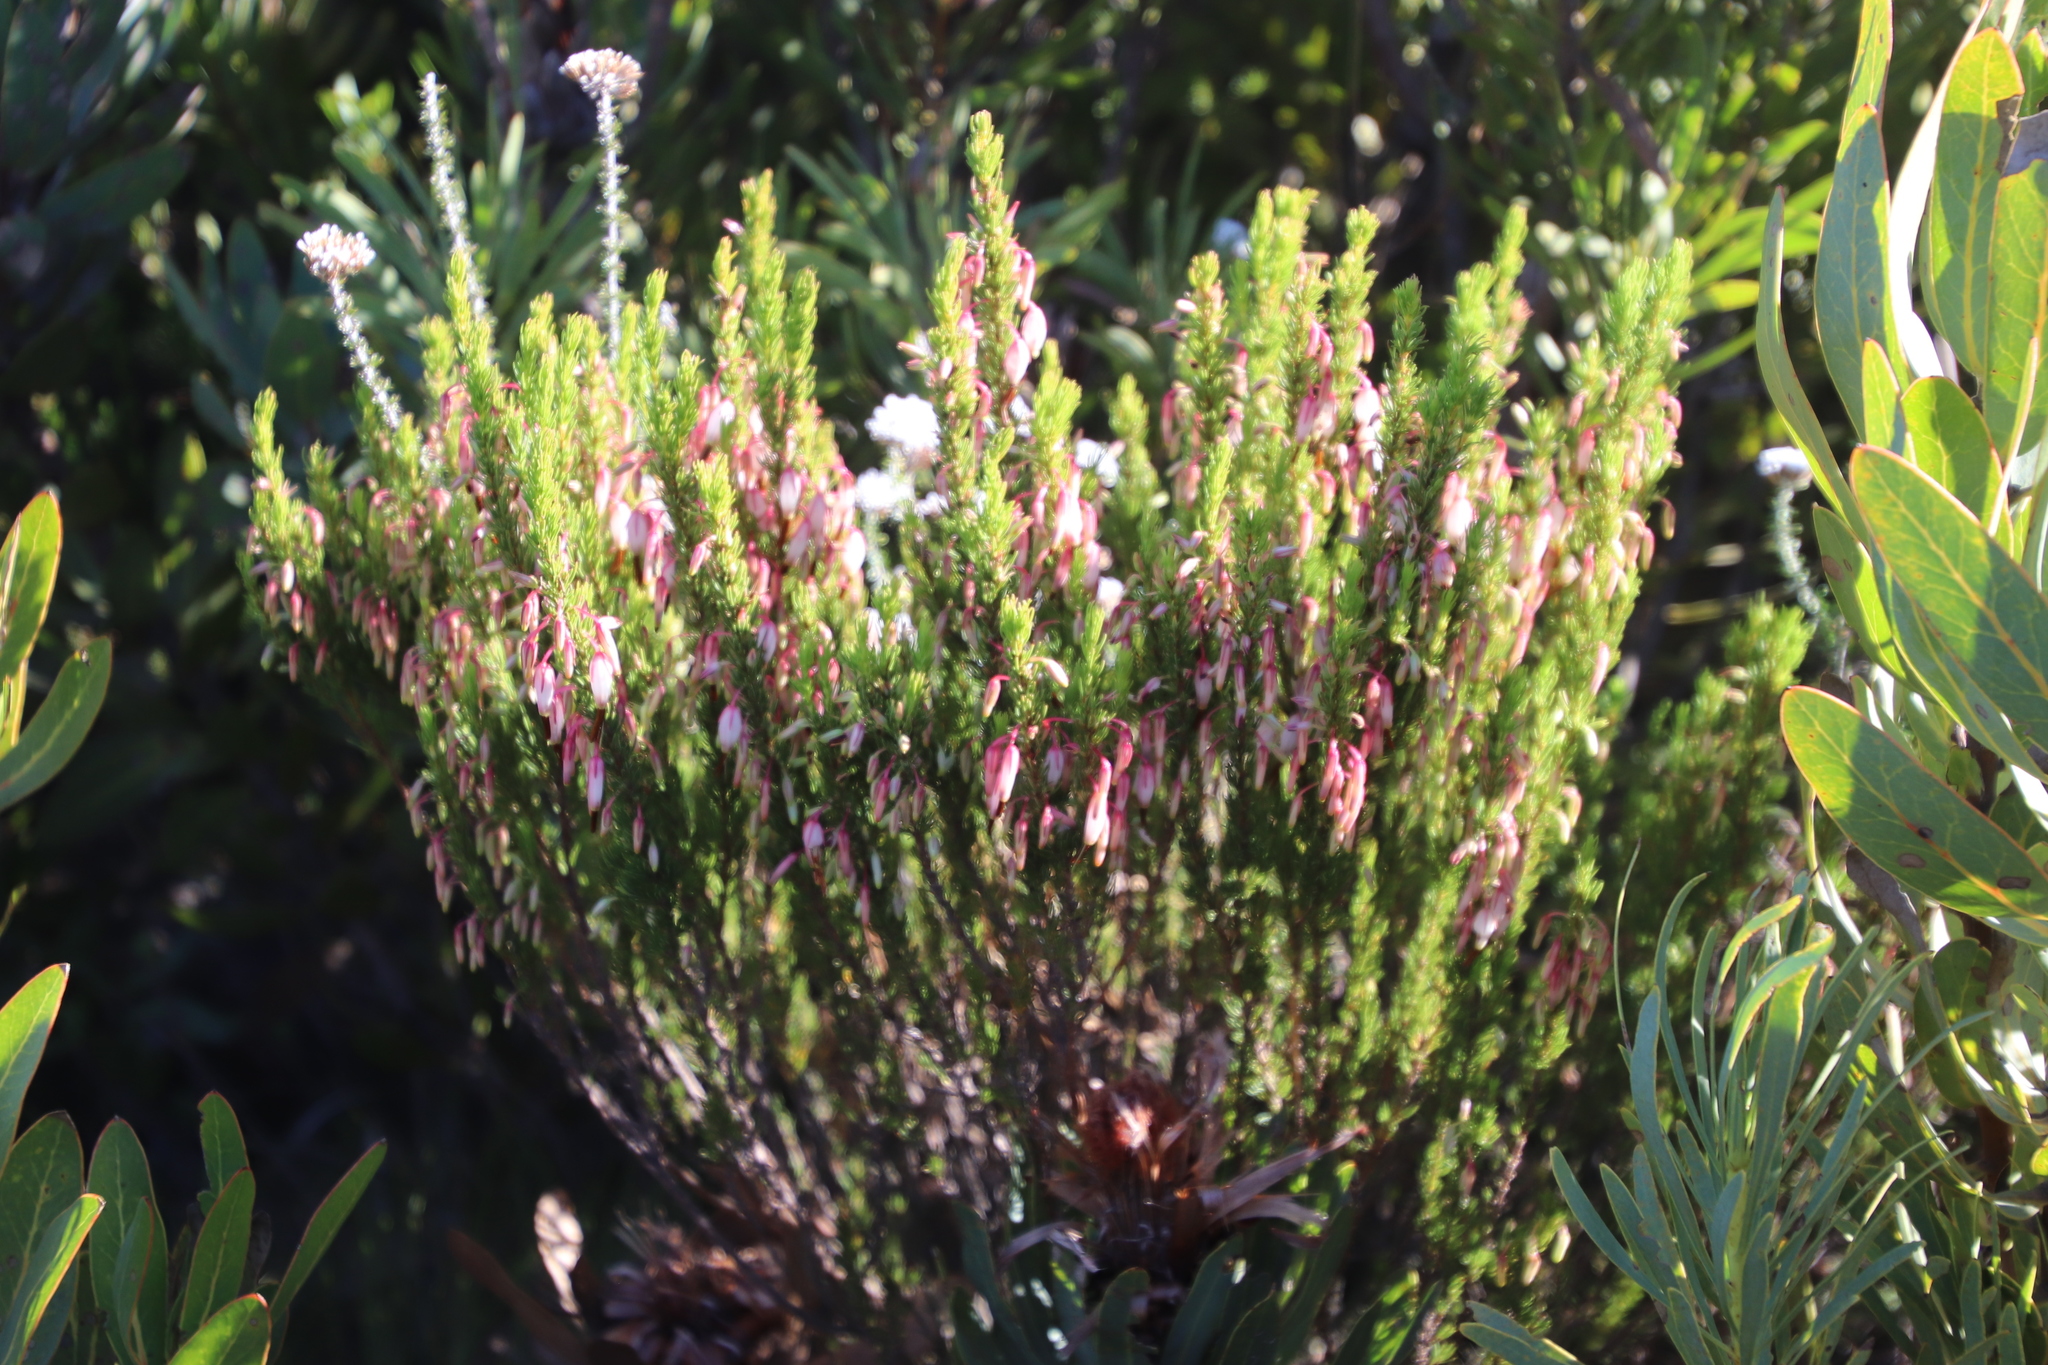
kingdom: Plantae
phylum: Tracheophyta
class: Magnoliopsida
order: Ericales
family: Ericaceae
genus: Erica
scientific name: Erica plukenetii
